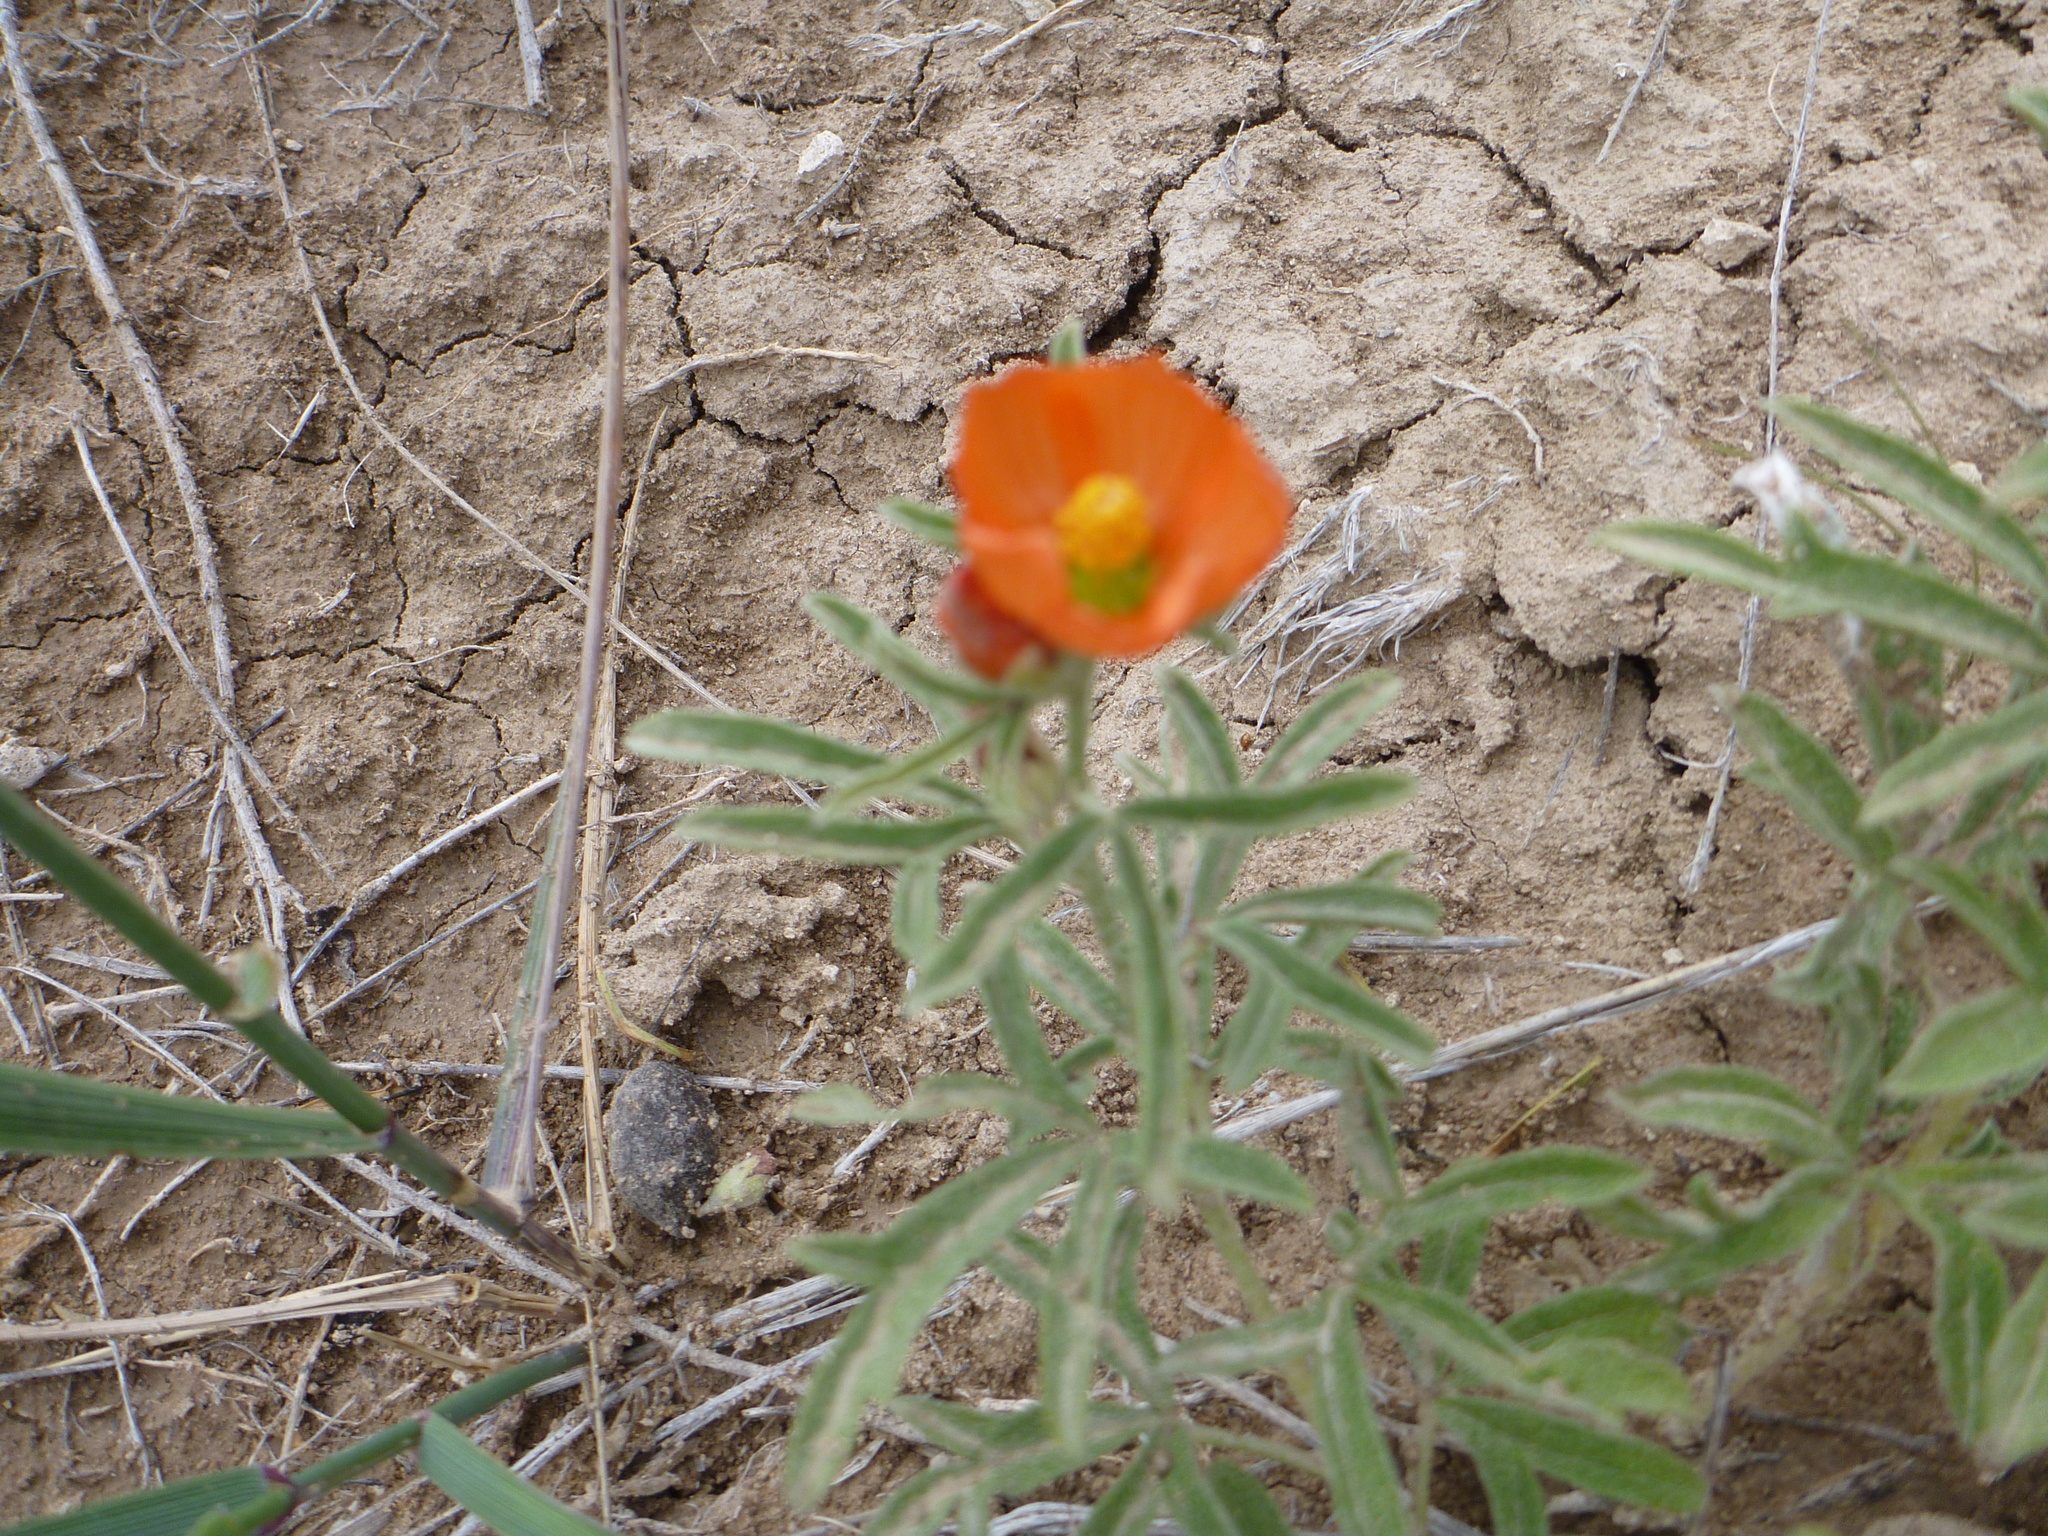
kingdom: Plantae
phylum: Tracheophyta
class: Magnoliopsida
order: Malvales
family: Malvaceae
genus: Sphaeralcea
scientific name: Sphaeralcea coccinea
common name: Moss-rose
